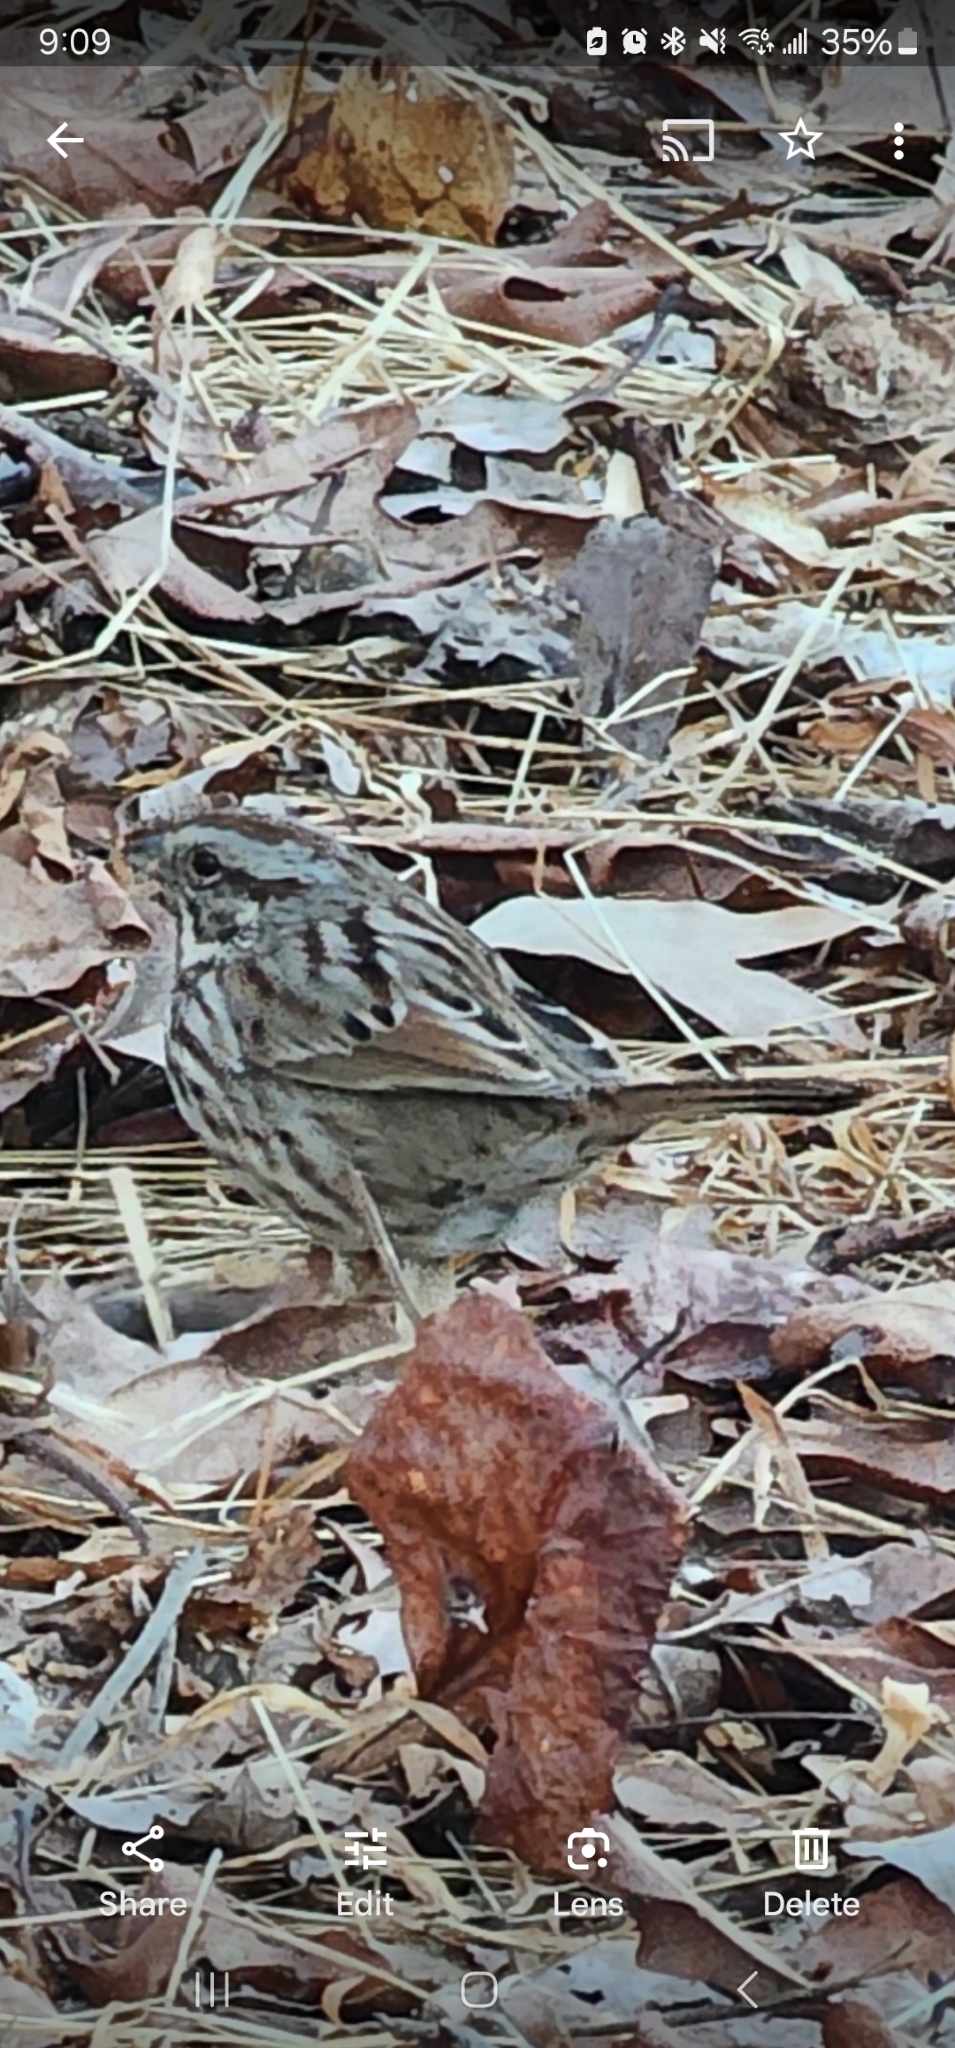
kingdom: Animalia
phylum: Chordata
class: Aves
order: Passeriformes
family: Passerellidae
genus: Melospiza
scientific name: Melospiza melodia
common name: Song sparrow
